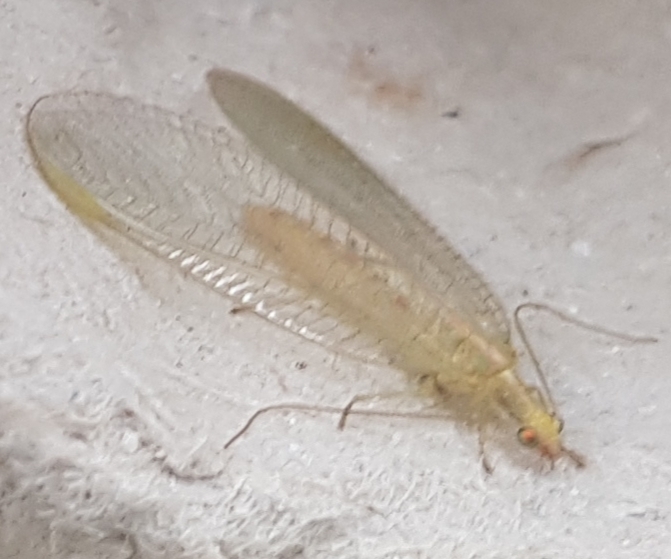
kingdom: Animalia
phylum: Arthropoda
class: Insecta
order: Neuroptera
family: Chrysopidae
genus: Chrysoperla
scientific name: Chrysoperla
